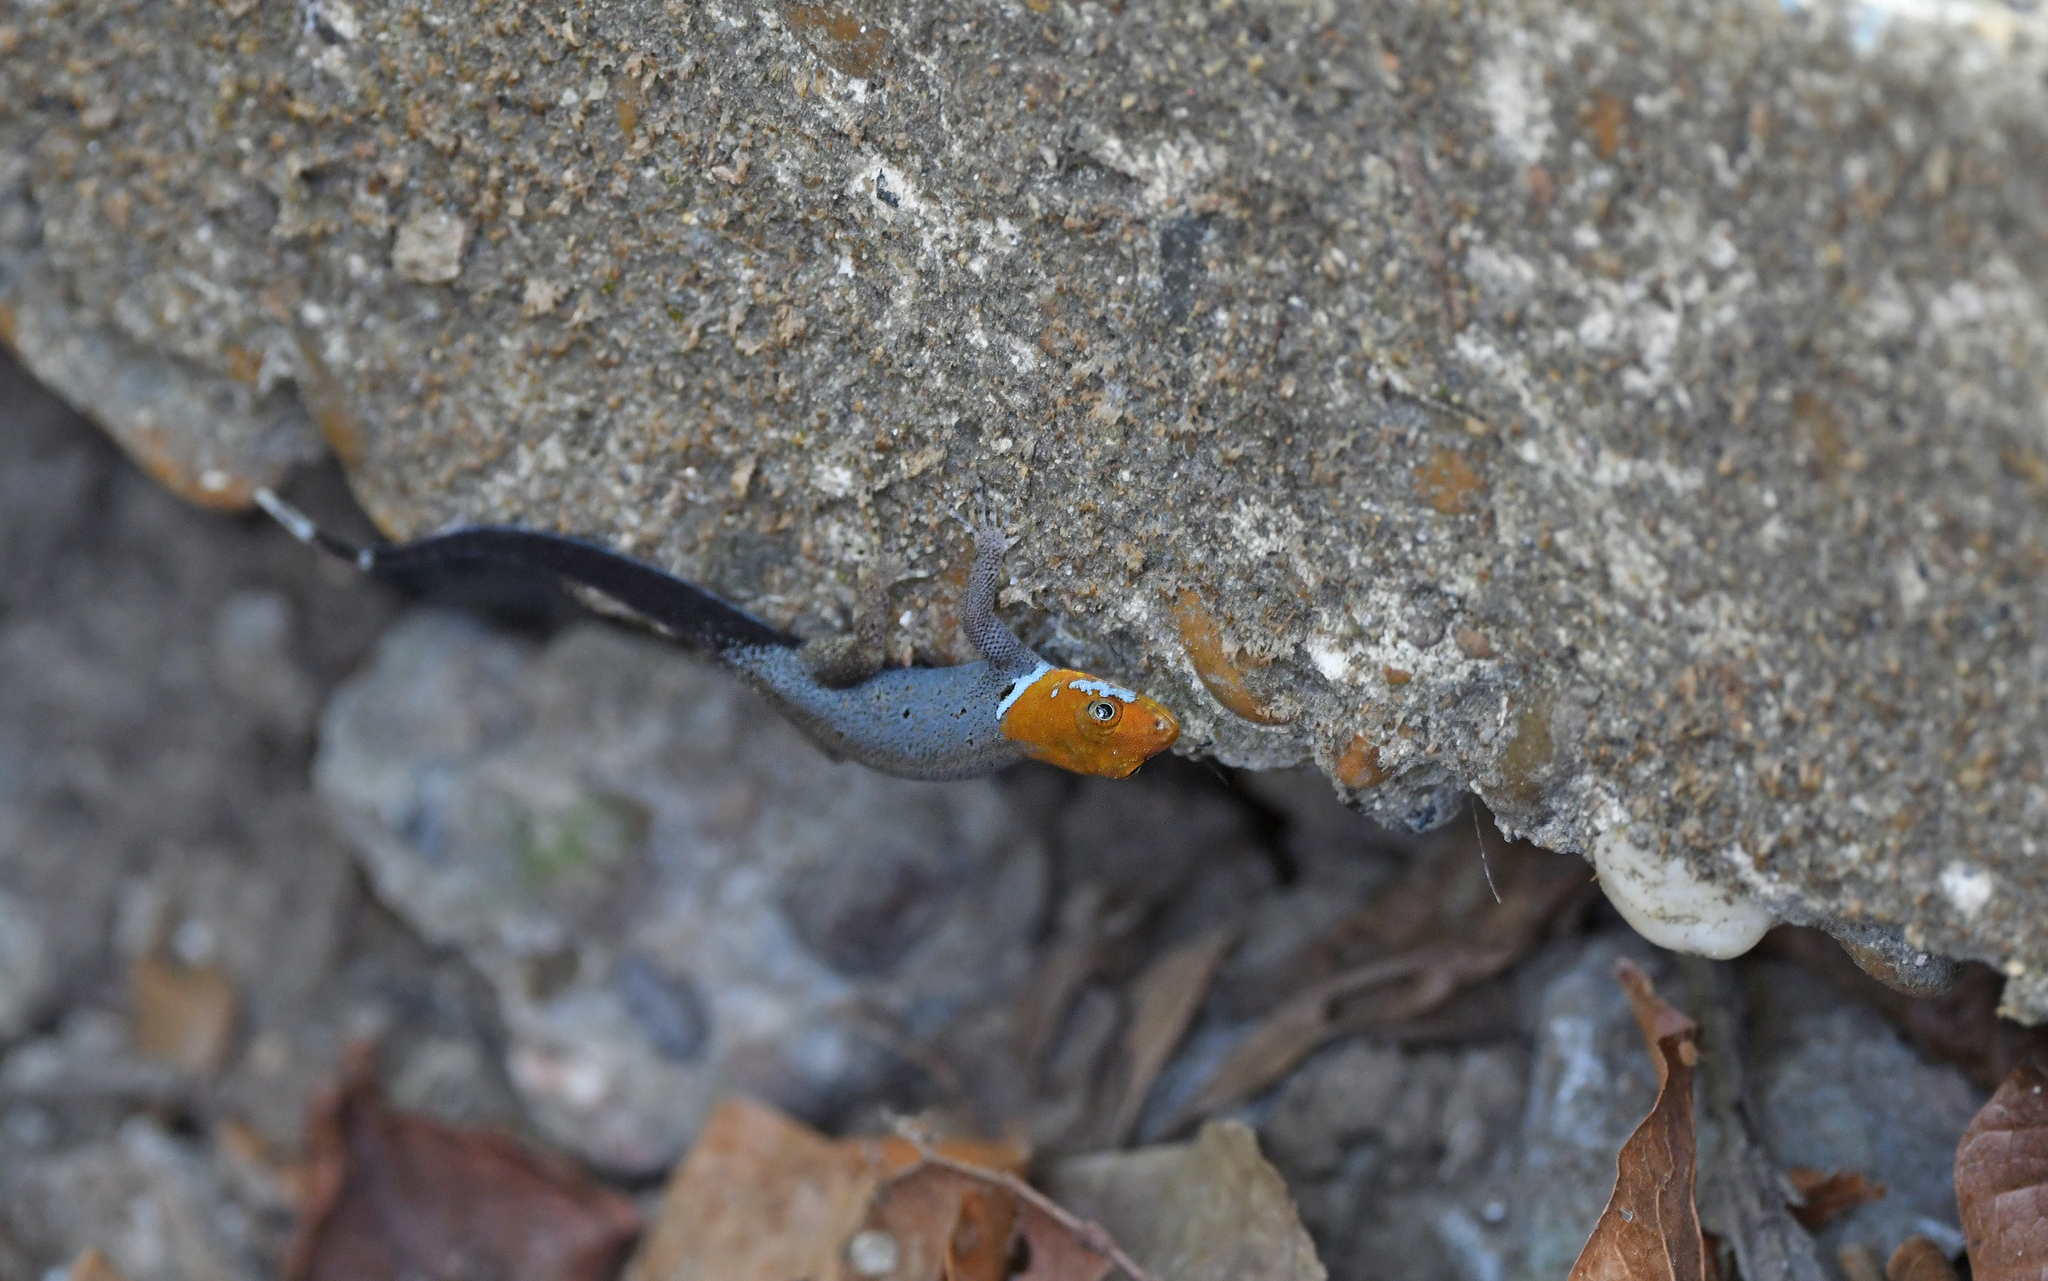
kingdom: Animalia
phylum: Chordata
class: Squamata
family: Sphaerodactylidae
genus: Gonatodes
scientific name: Gonatodes albogularis
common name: Yellow-headed gecko
